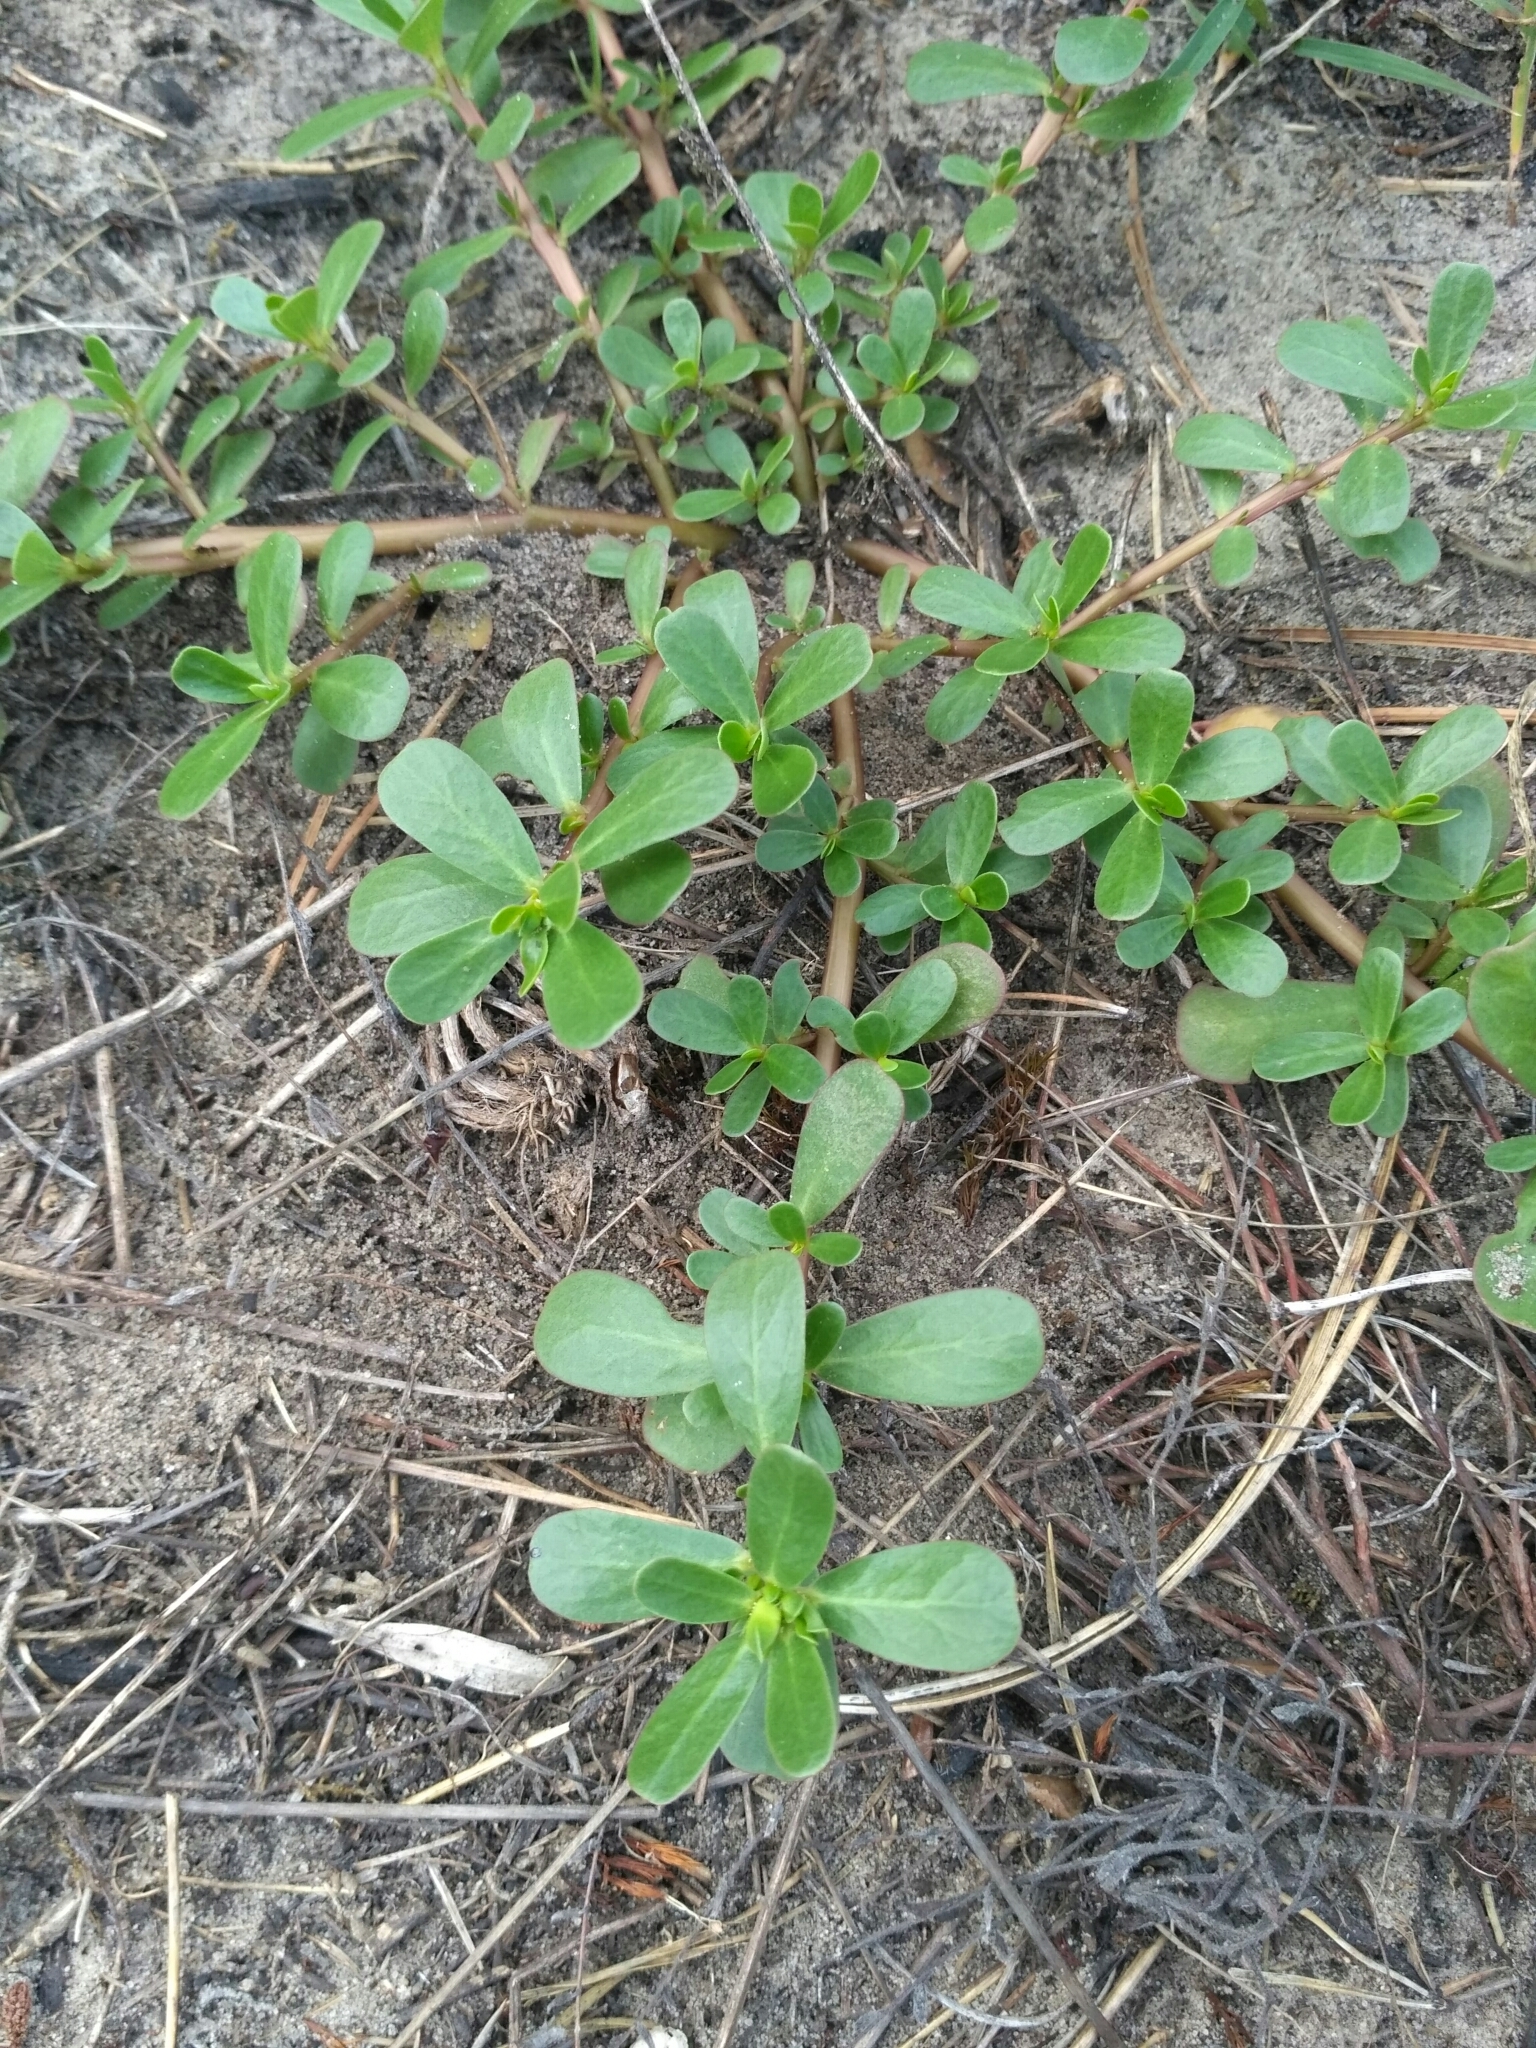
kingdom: Plantae
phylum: Tracheophyta
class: Magnoliopsida
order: Caryophyllales
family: Portulacaceae
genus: Portulaca
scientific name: Portulaca oleracea
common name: Common purslane
